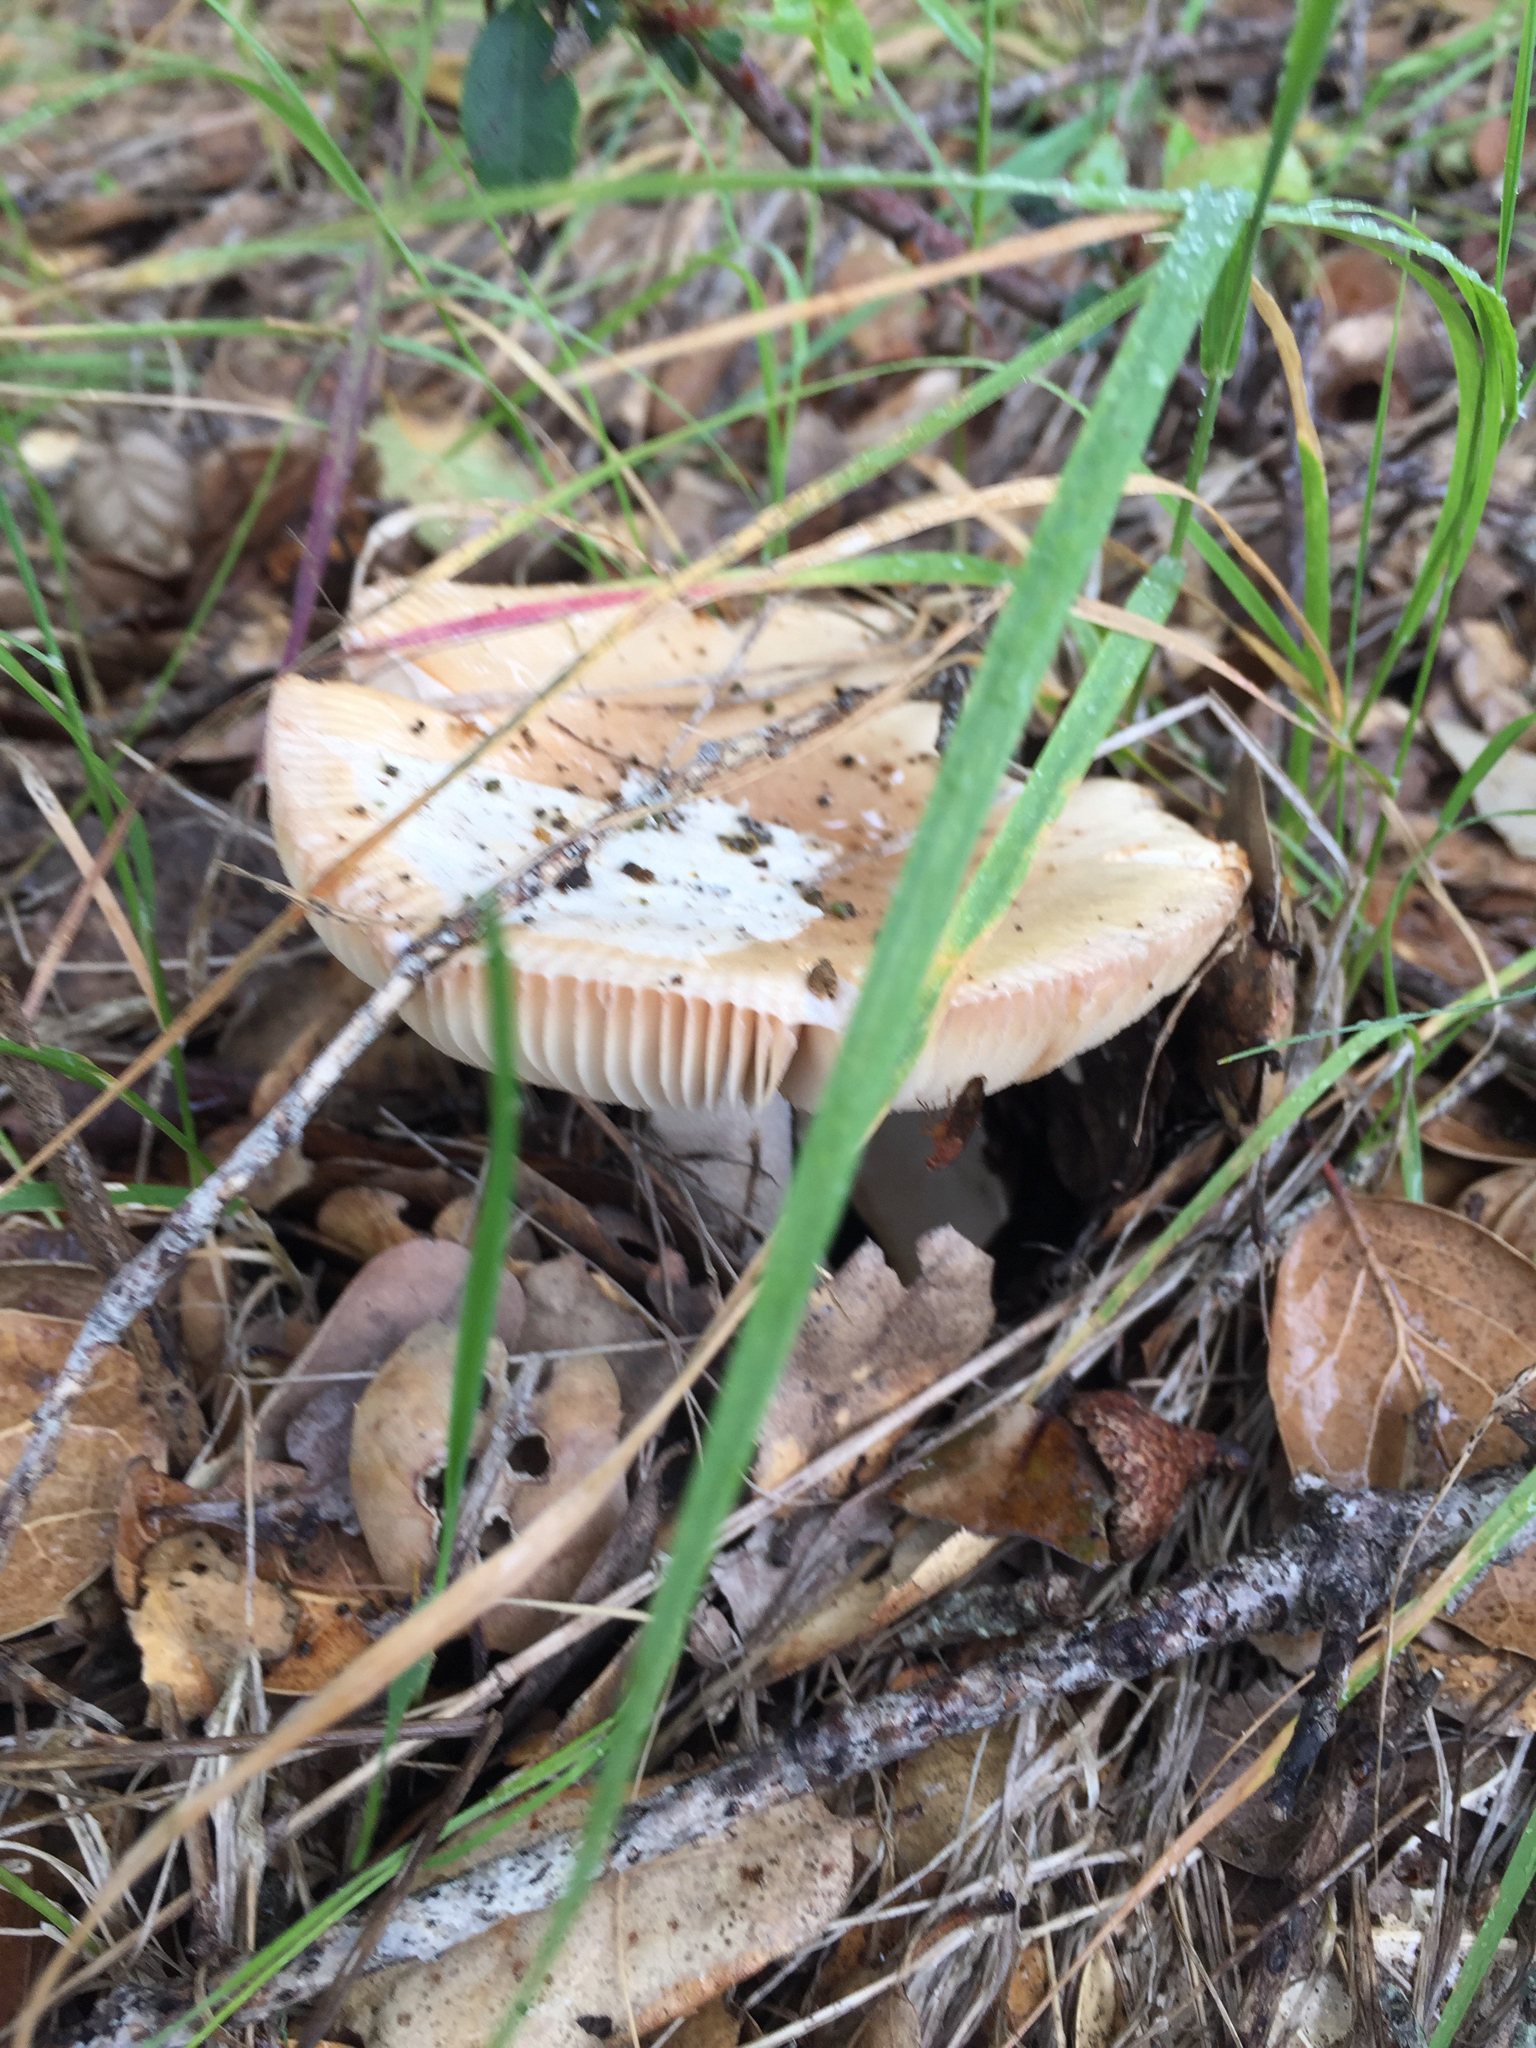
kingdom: Fungi
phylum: Basidiomycota
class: Agaricomycetes
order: Agaricales
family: Amanitaceae
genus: Amanita
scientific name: Amanita velosa
